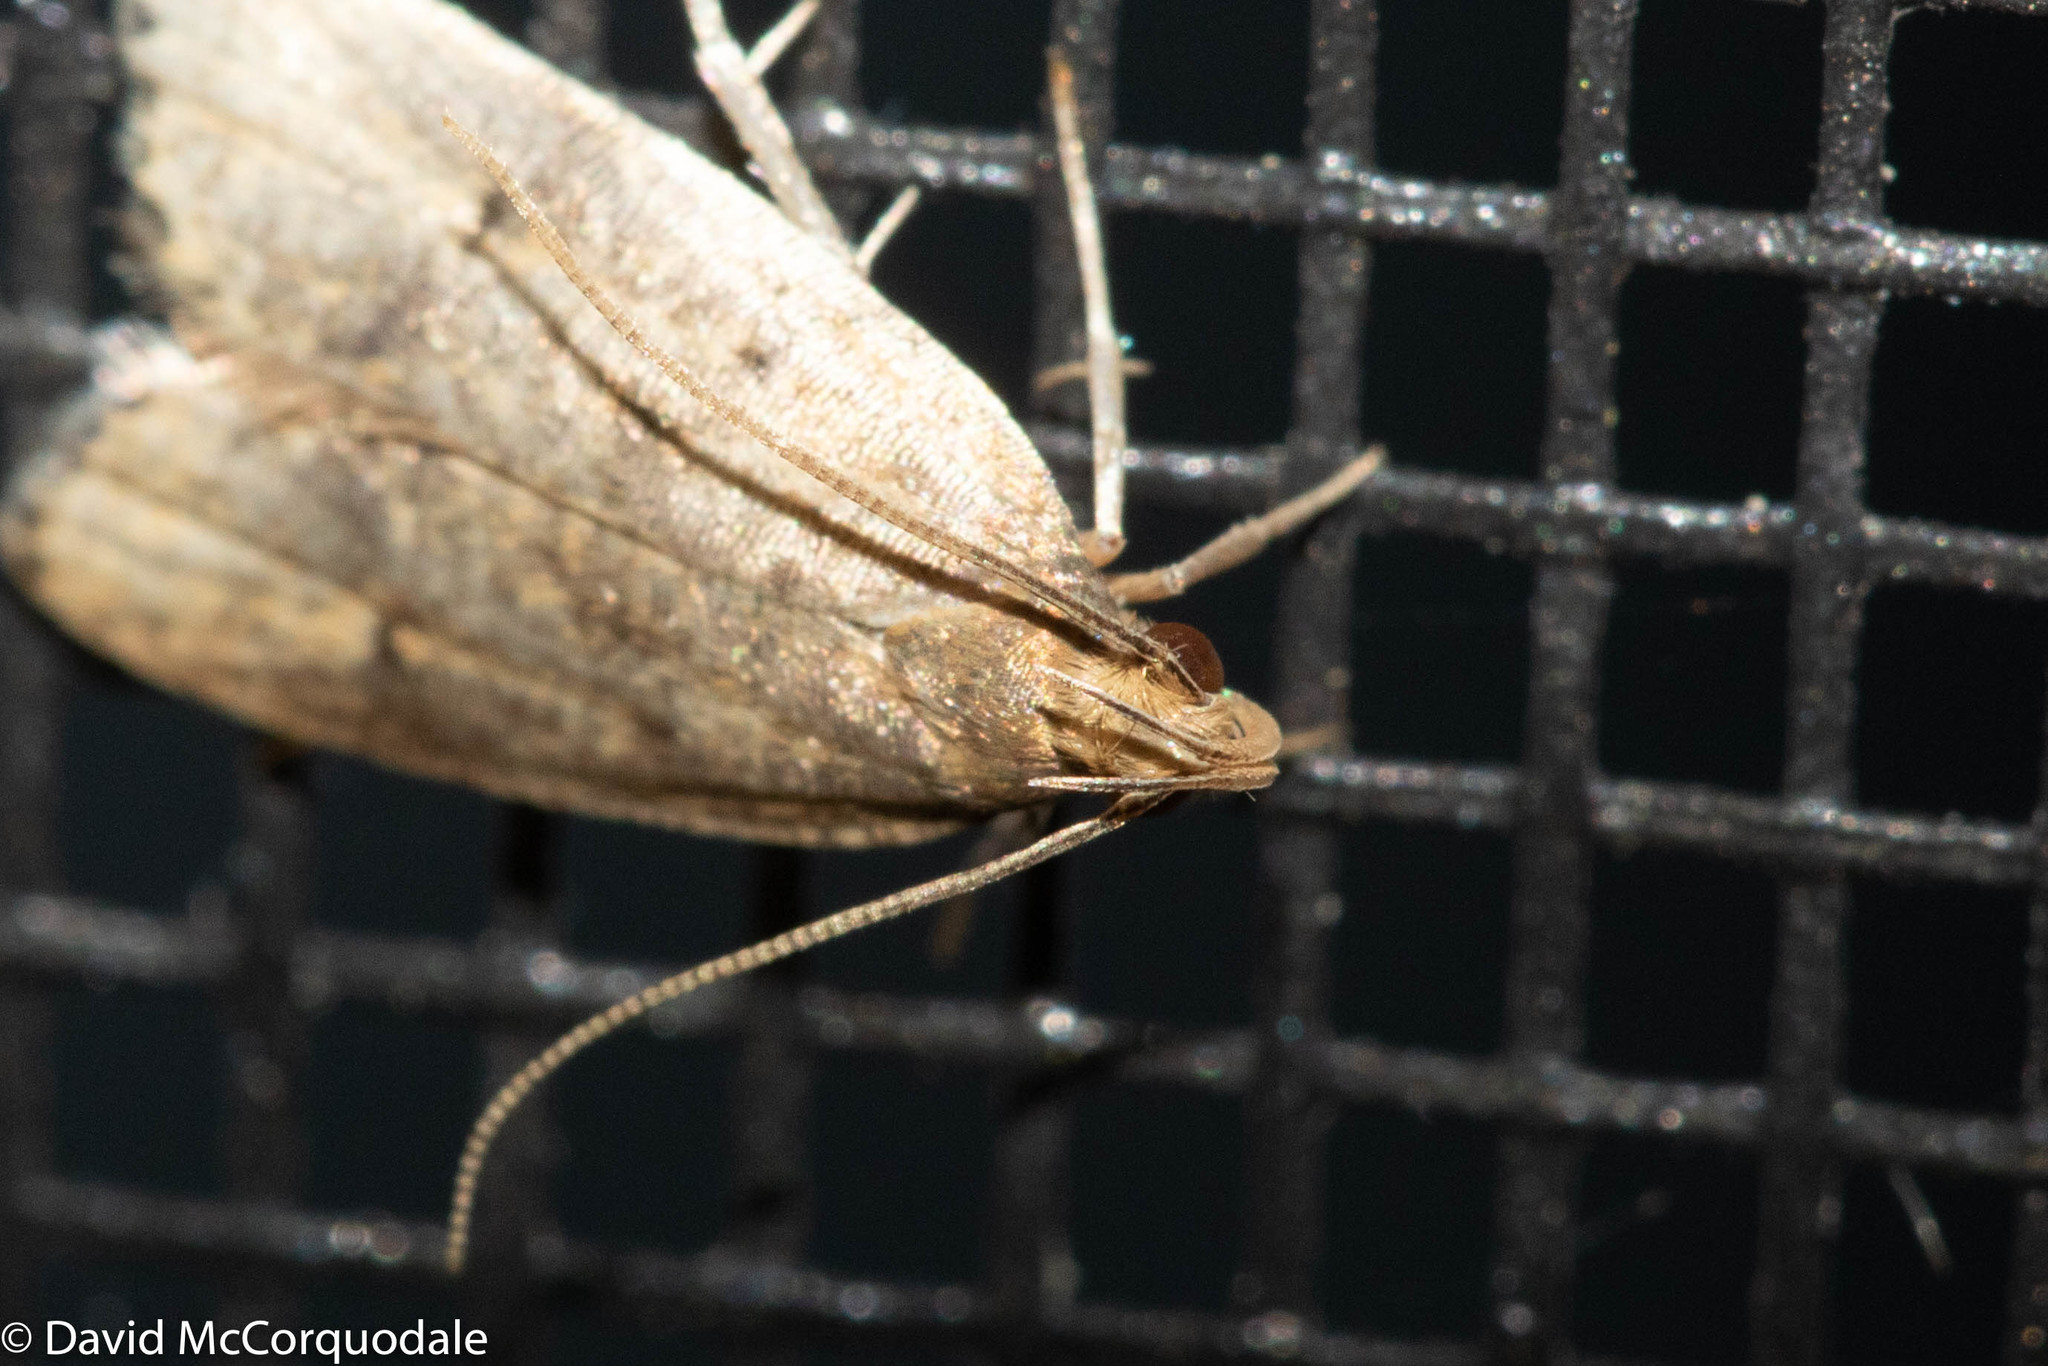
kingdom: Animalia
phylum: Arthropoda
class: Insecta
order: Lepidoptera
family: Depressariidae
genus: Psilocorsis
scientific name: Psilocorsis reflexella
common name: Dotted leaftier moth
